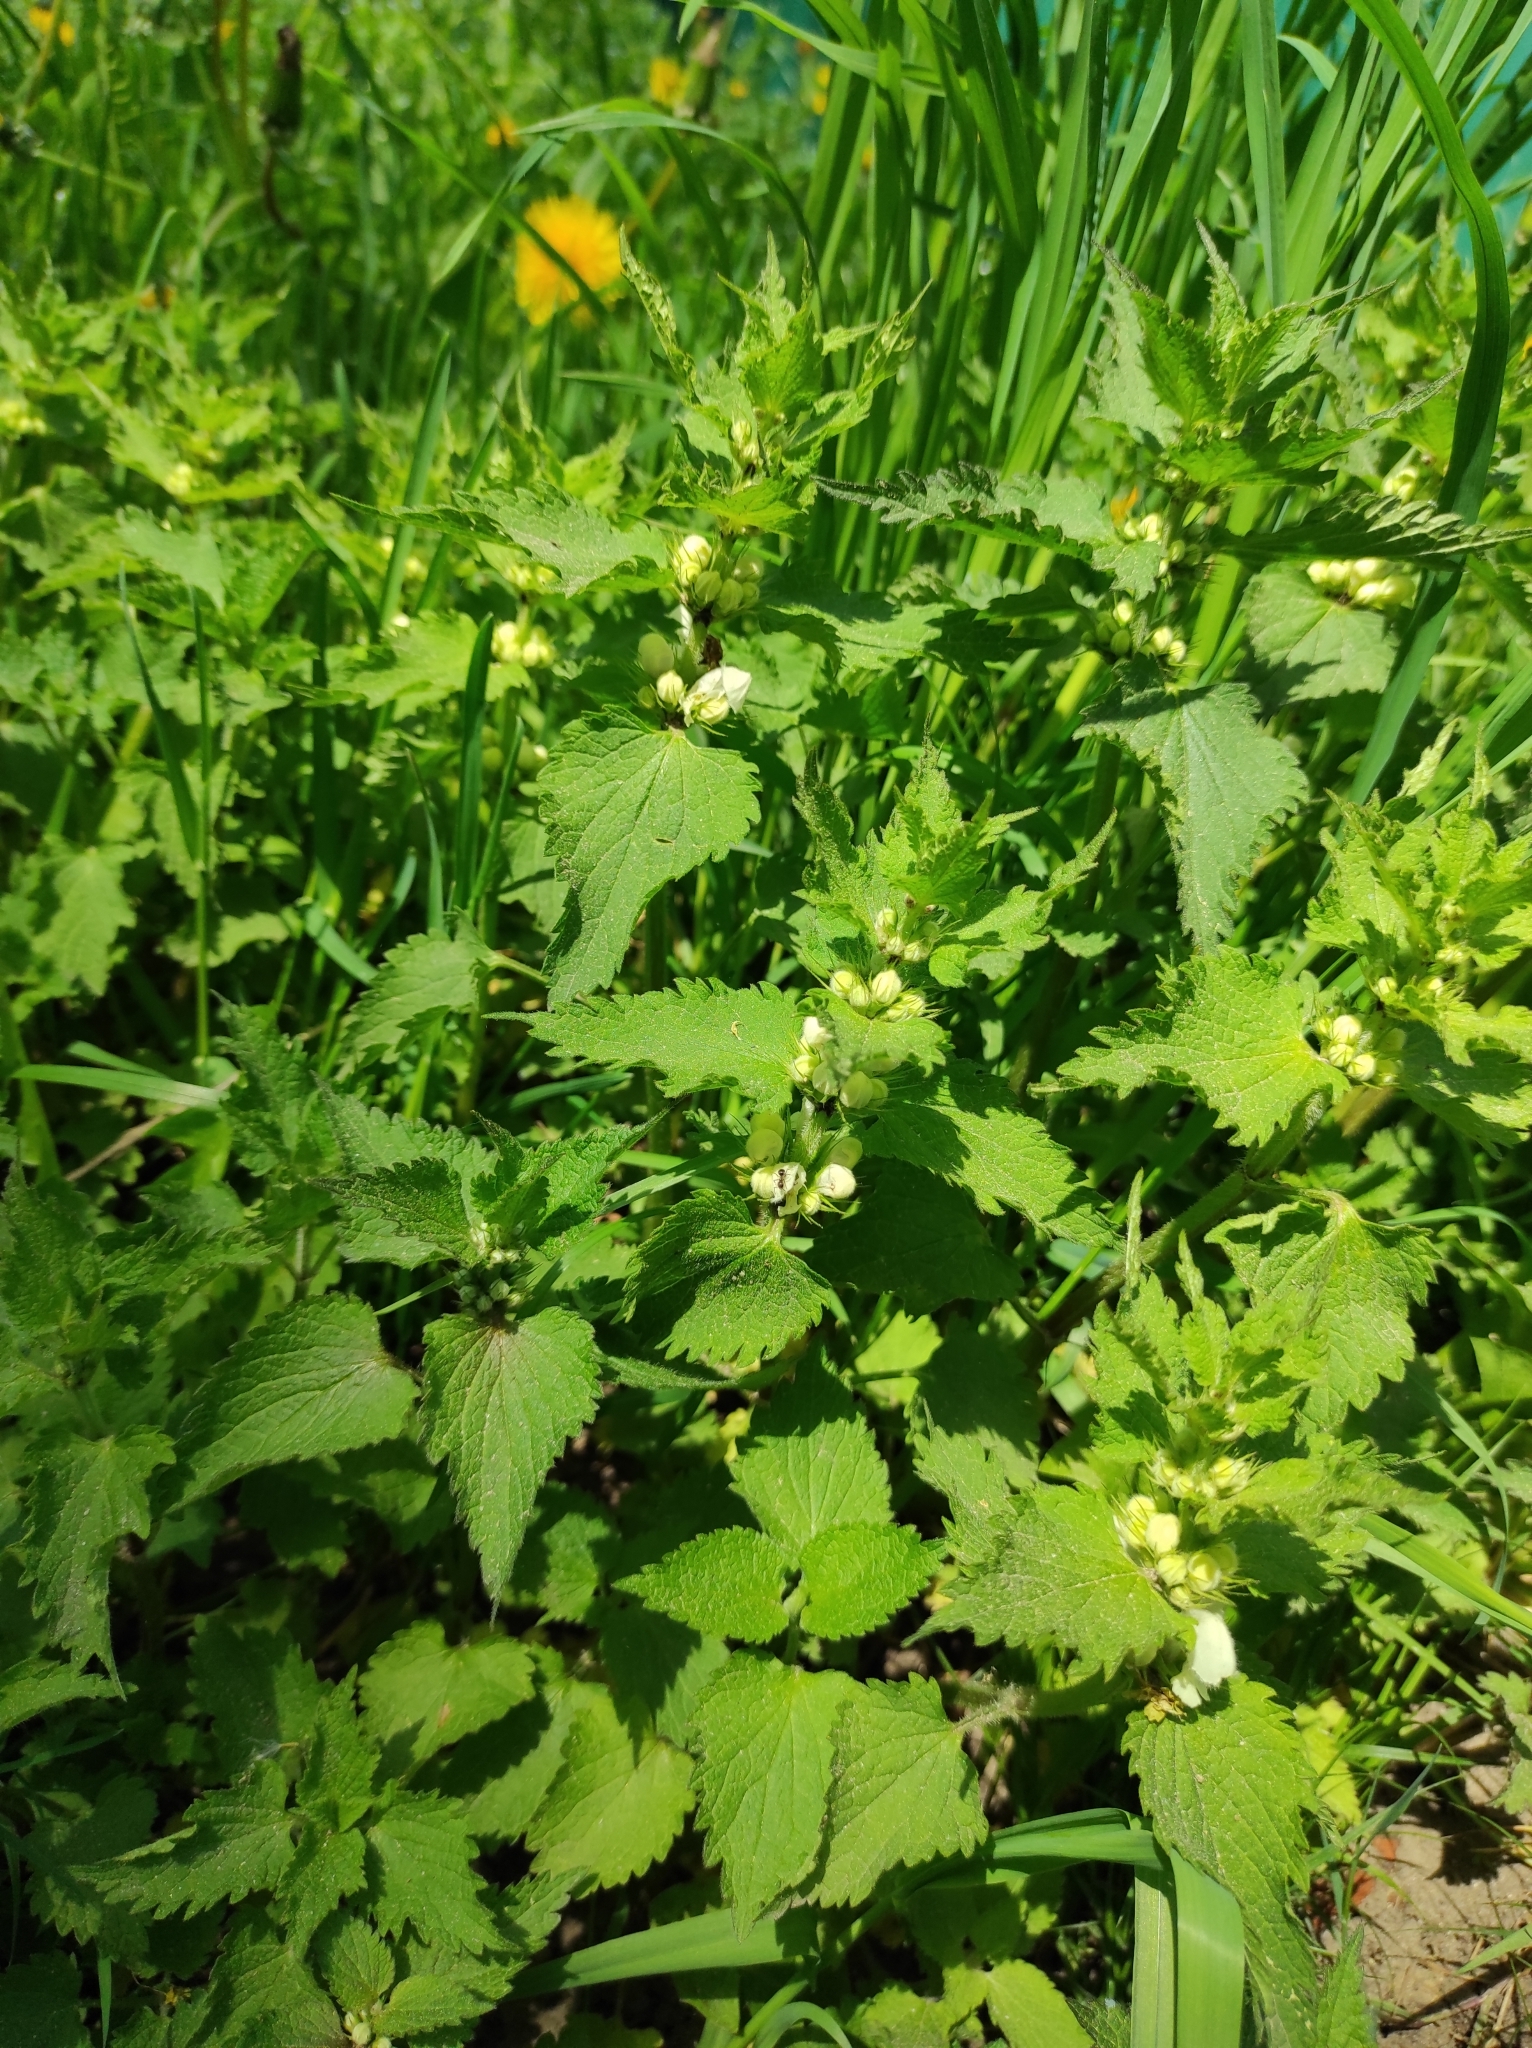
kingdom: Plantae
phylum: Tracheophyta
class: Magnoliopsida
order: Lamiales
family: Lamiaceae
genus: Lamium
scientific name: Lamium album
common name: White dead-nettle
